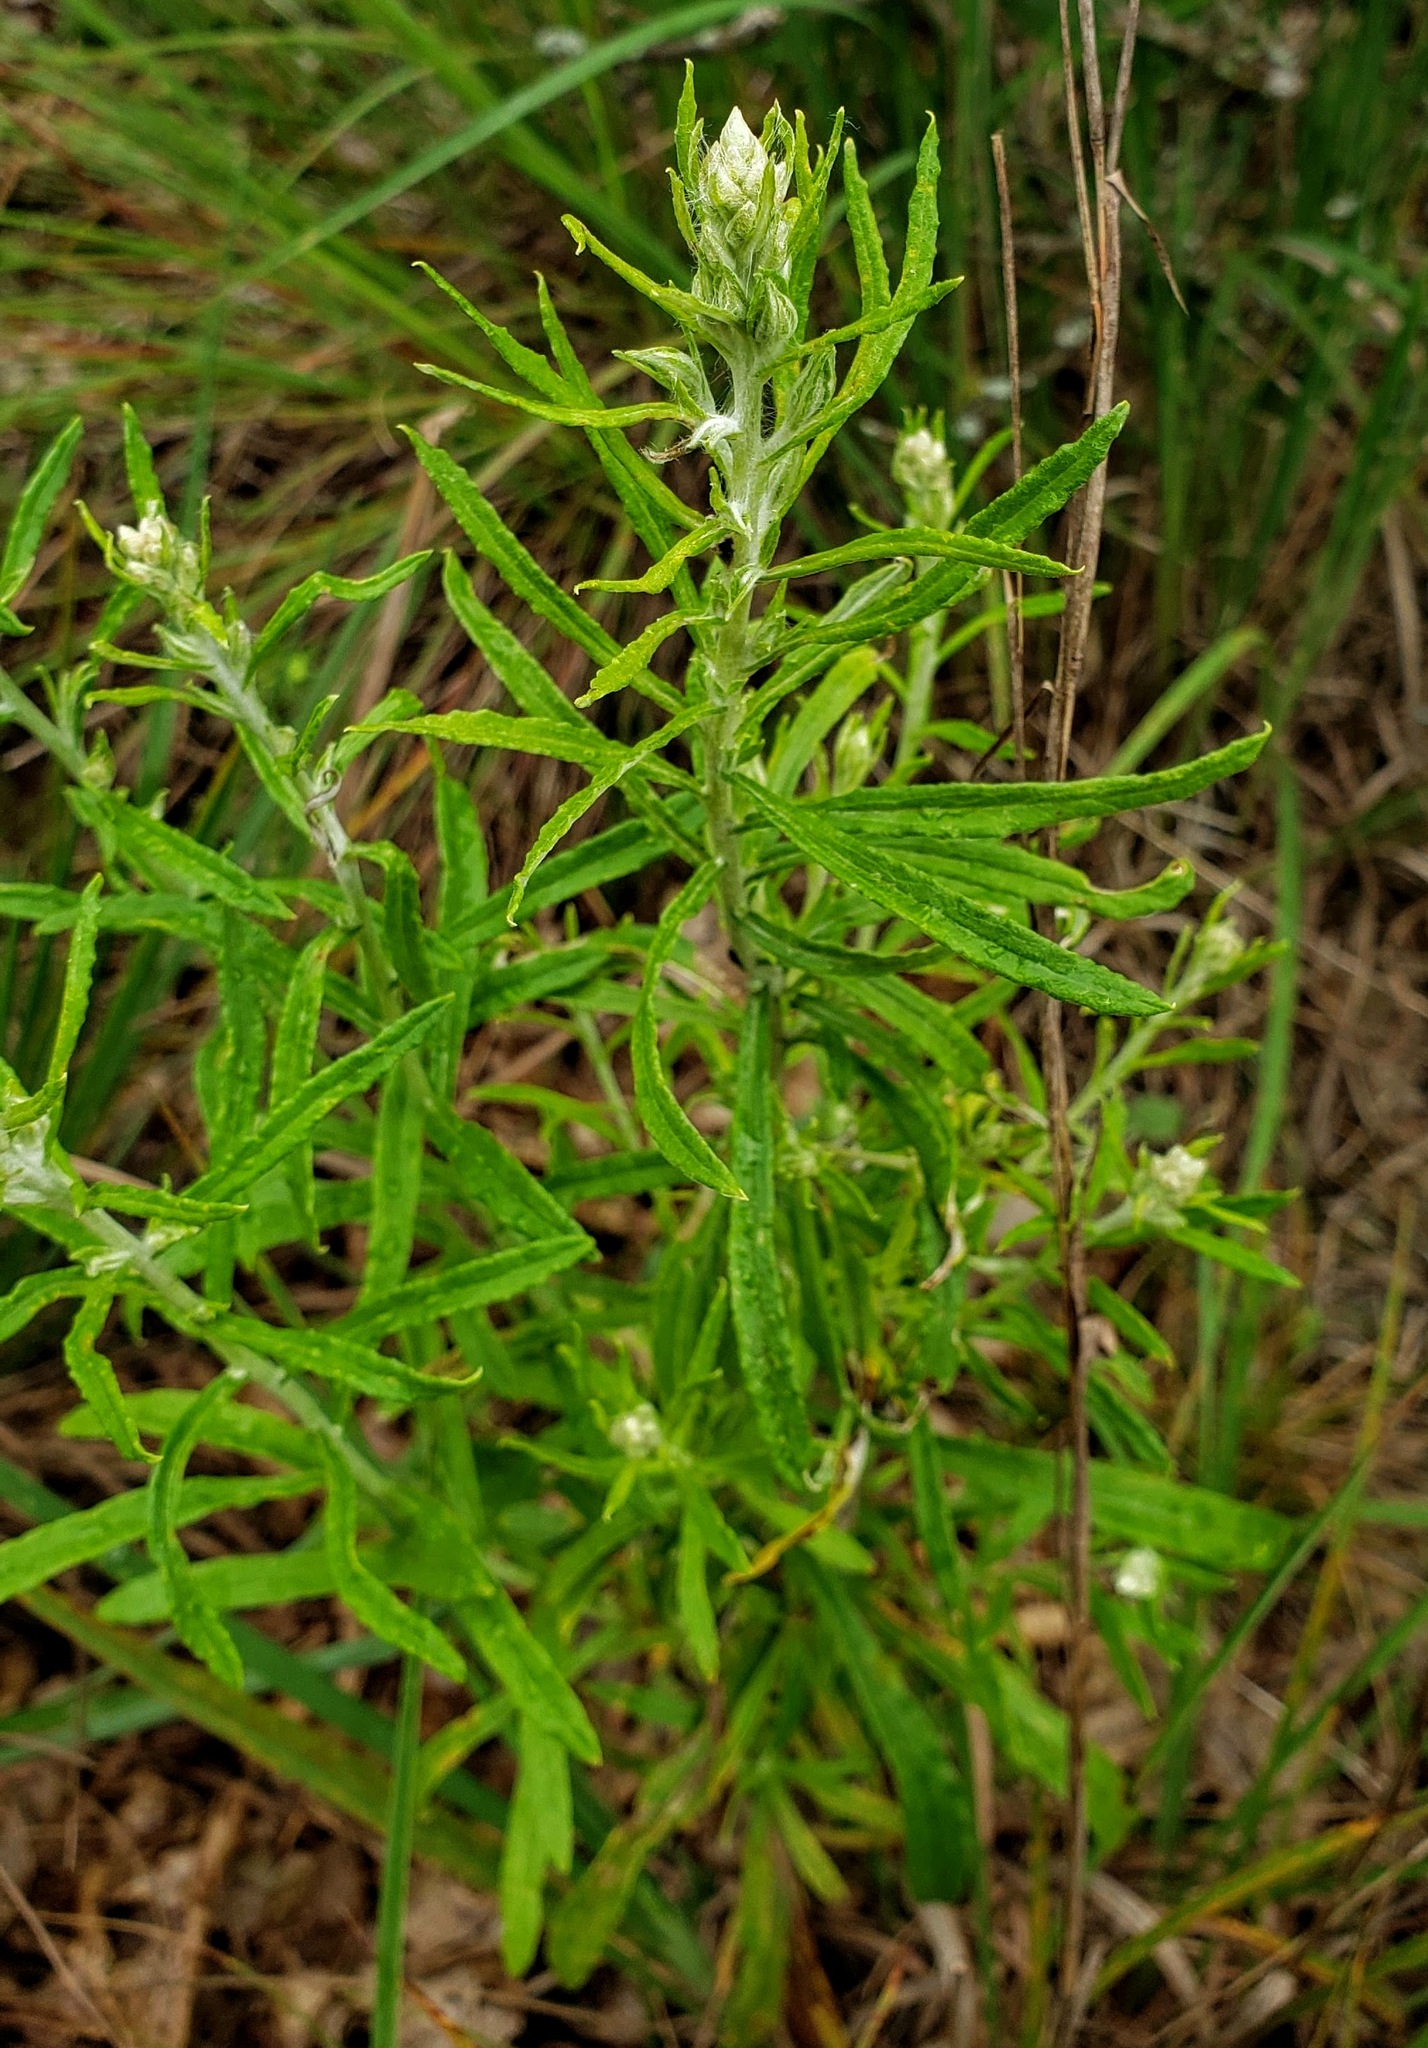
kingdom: Plantae
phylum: Tracheophyta
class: Magnoliopsida
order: Asterales
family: Asteraceae
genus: Pseudognaphalium
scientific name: Pseudognaphalium obtusifolium
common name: Eastern rabbit-tobacco
